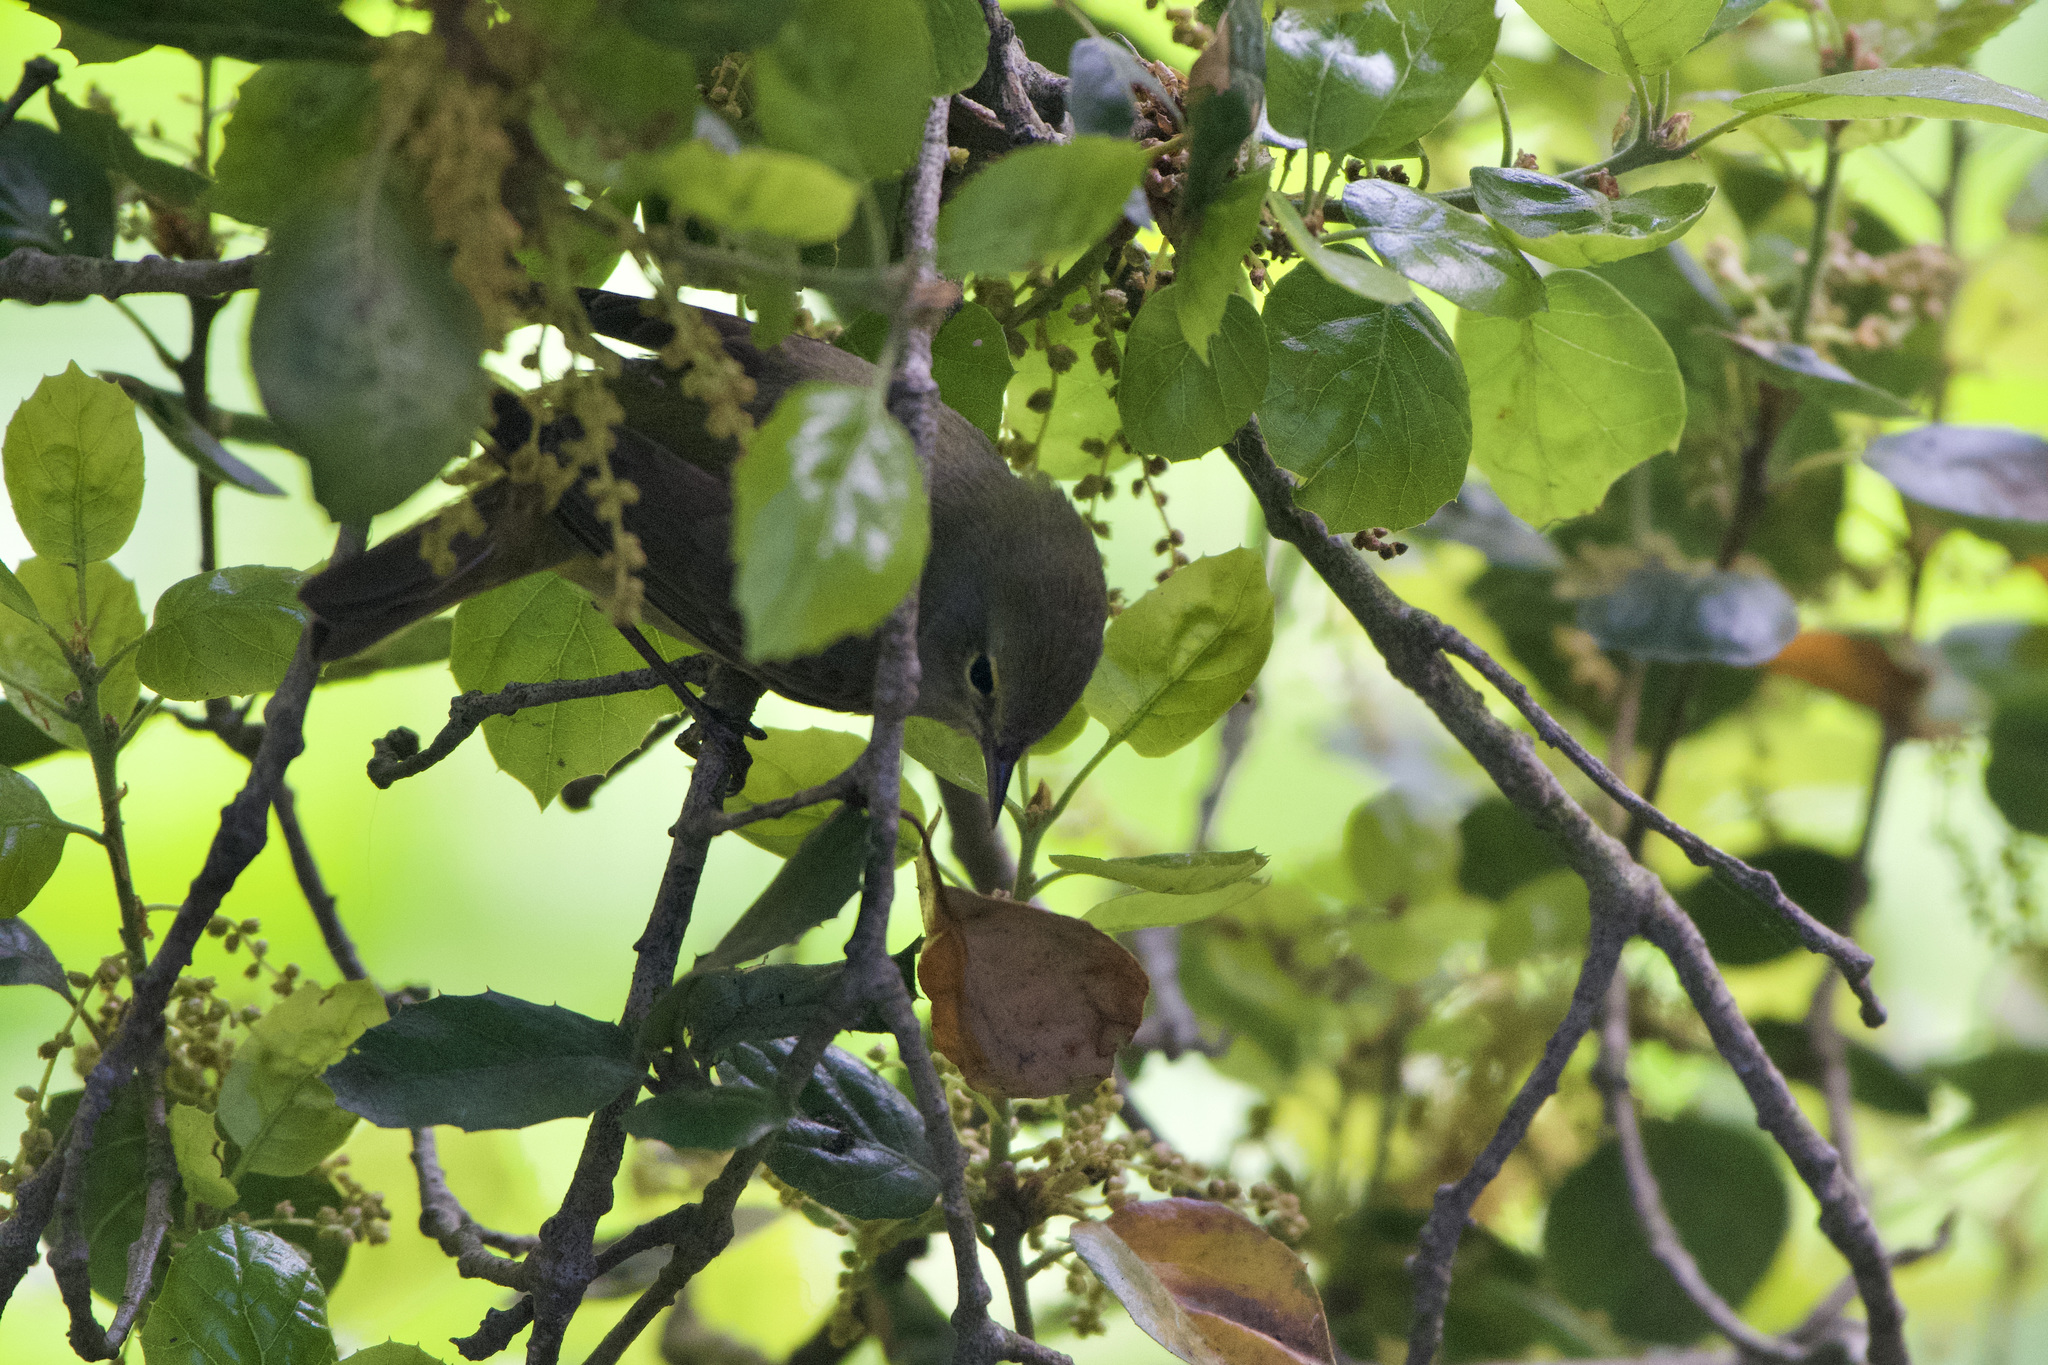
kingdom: Animalia
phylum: Chordata
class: Aves
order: Passeriformes
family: Parulidae
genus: Leiothlypis
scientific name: Leiothlypis celata
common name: Orange-crowned warbler
